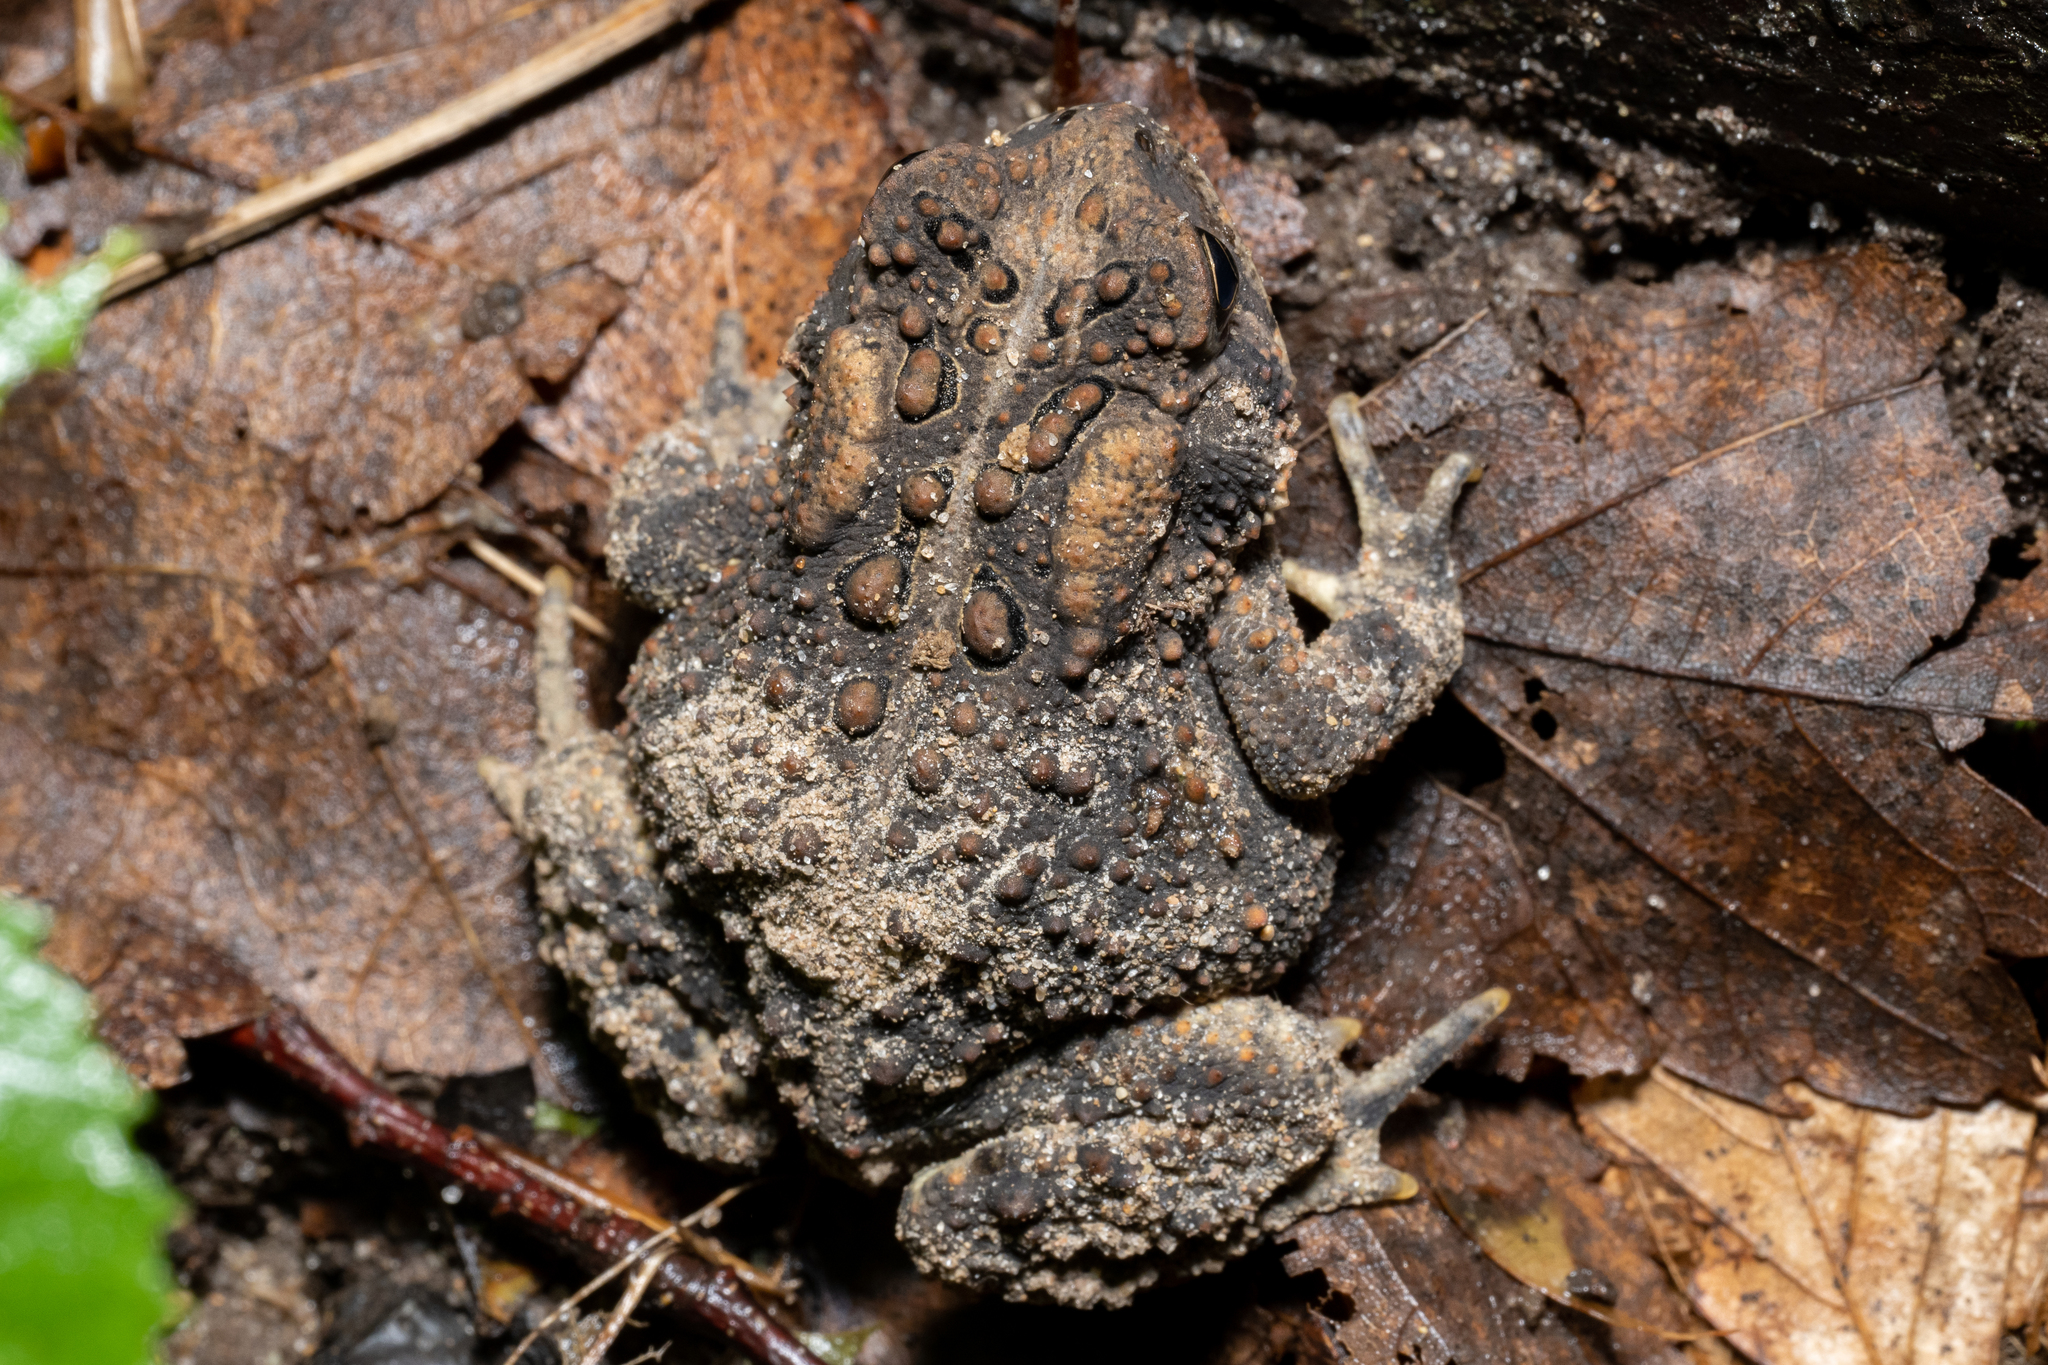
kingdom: Animalia
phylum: Chordata
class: Amphibia
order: Anura
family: Bufonidae
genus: Anaxyrus
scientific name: Anaxyrus americanus
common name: American toad
